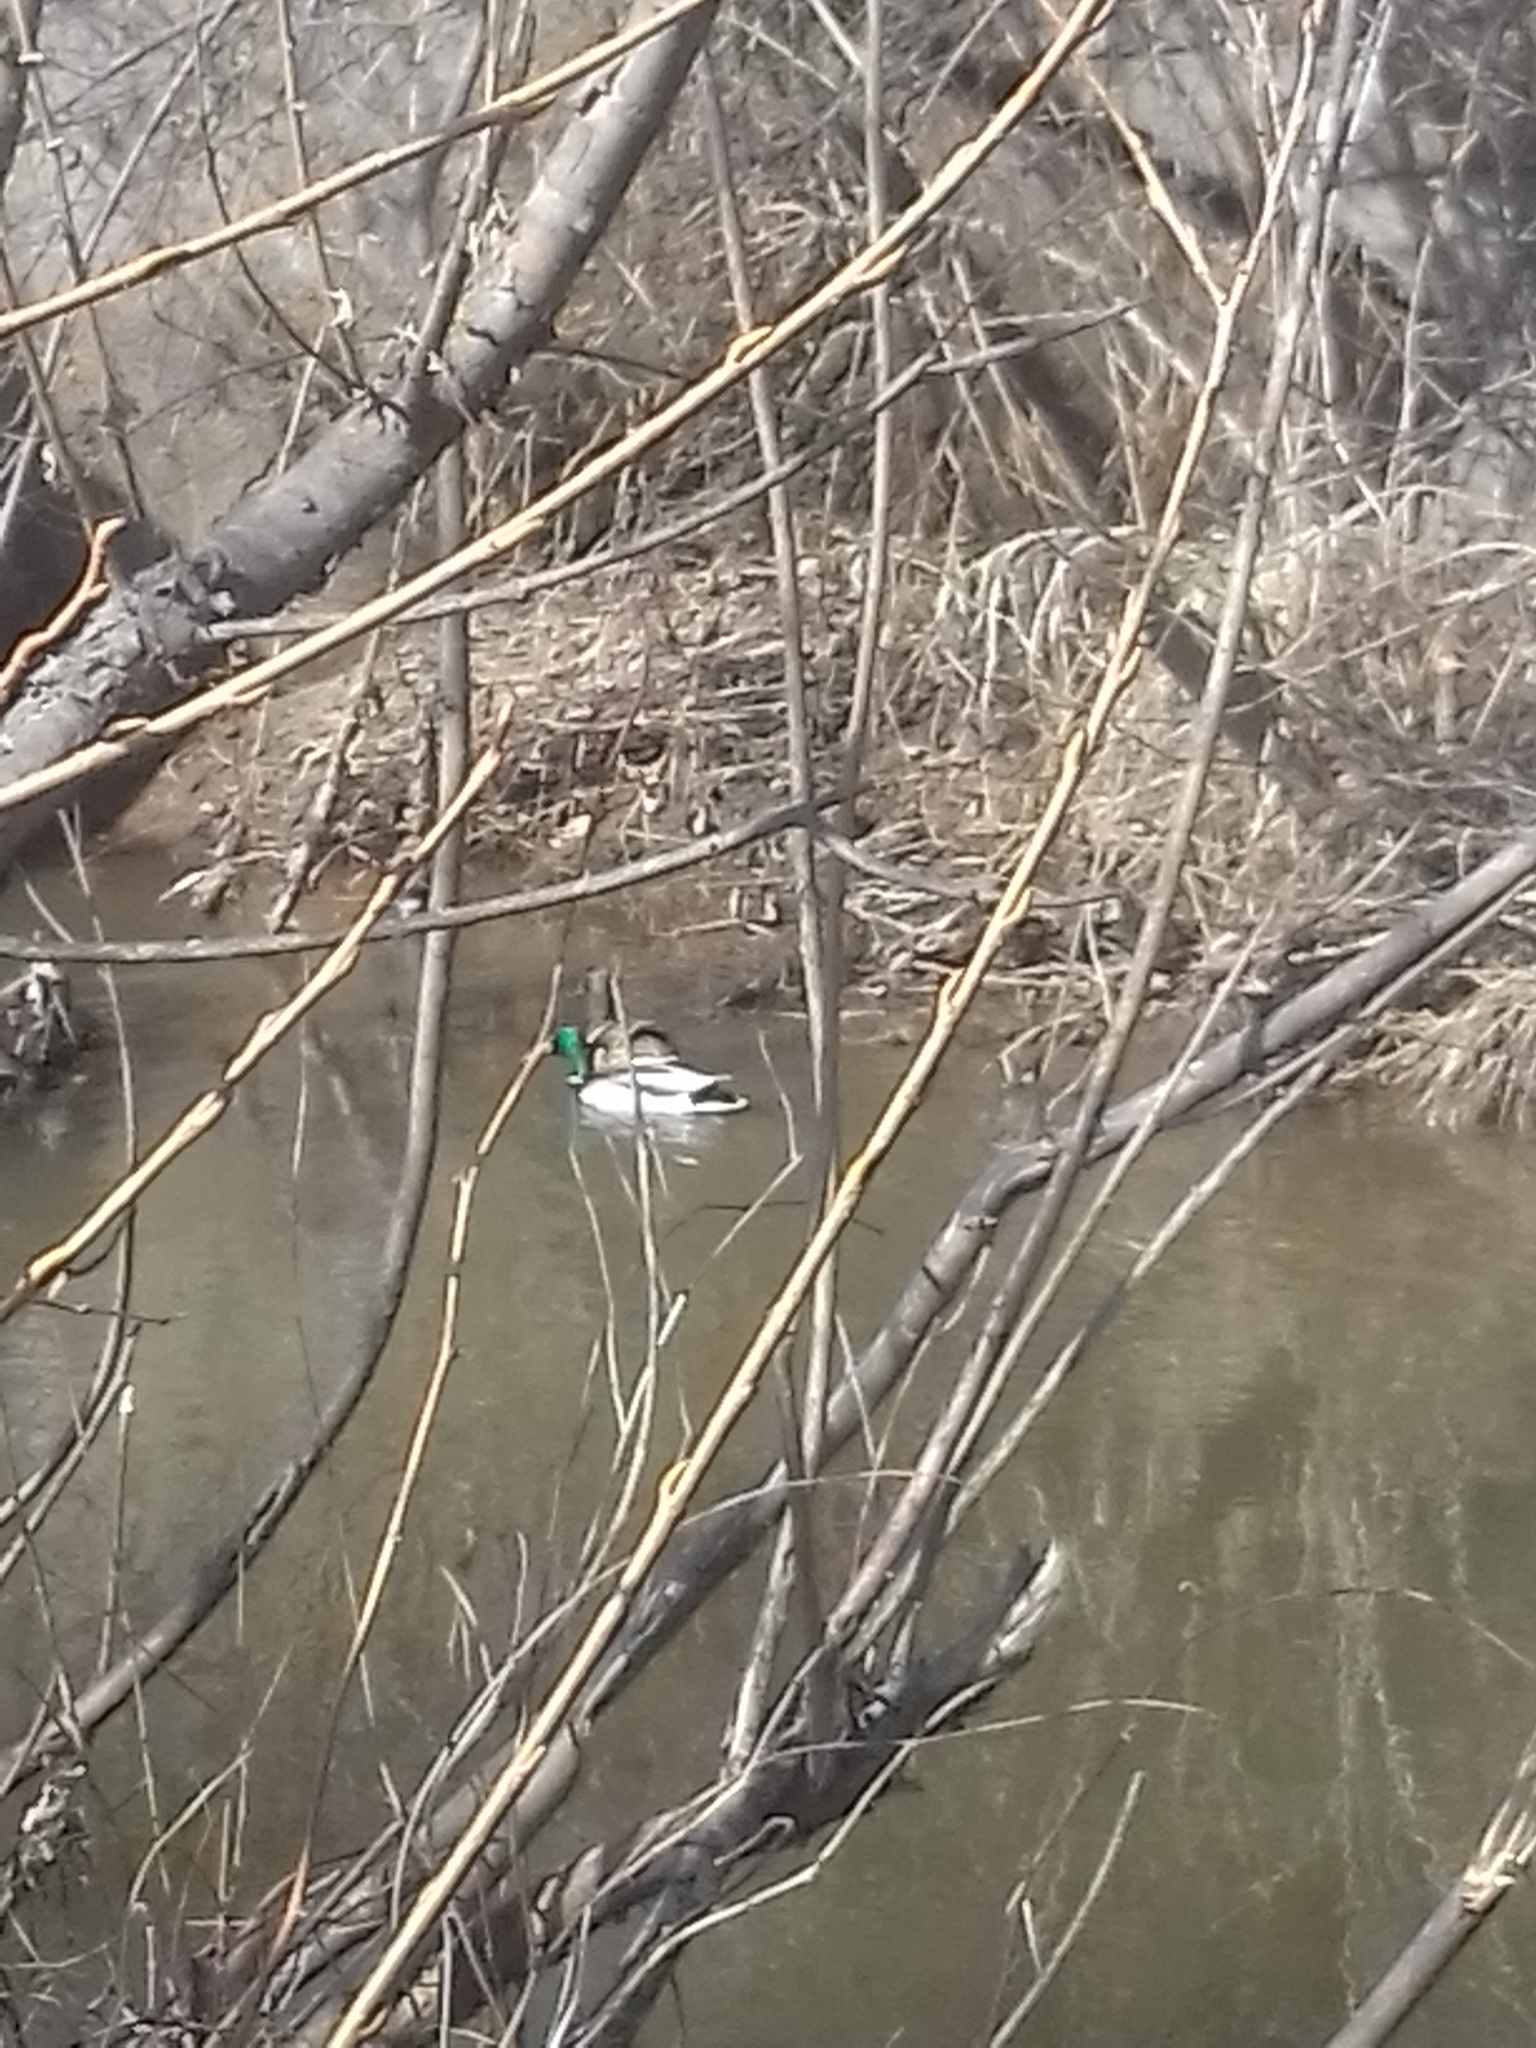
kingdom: Animalia
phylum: Chordata
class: Aves
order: Anseriformes
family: Anatidae
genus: Anas
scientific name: Anas platyrhynchos
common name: Mallard
